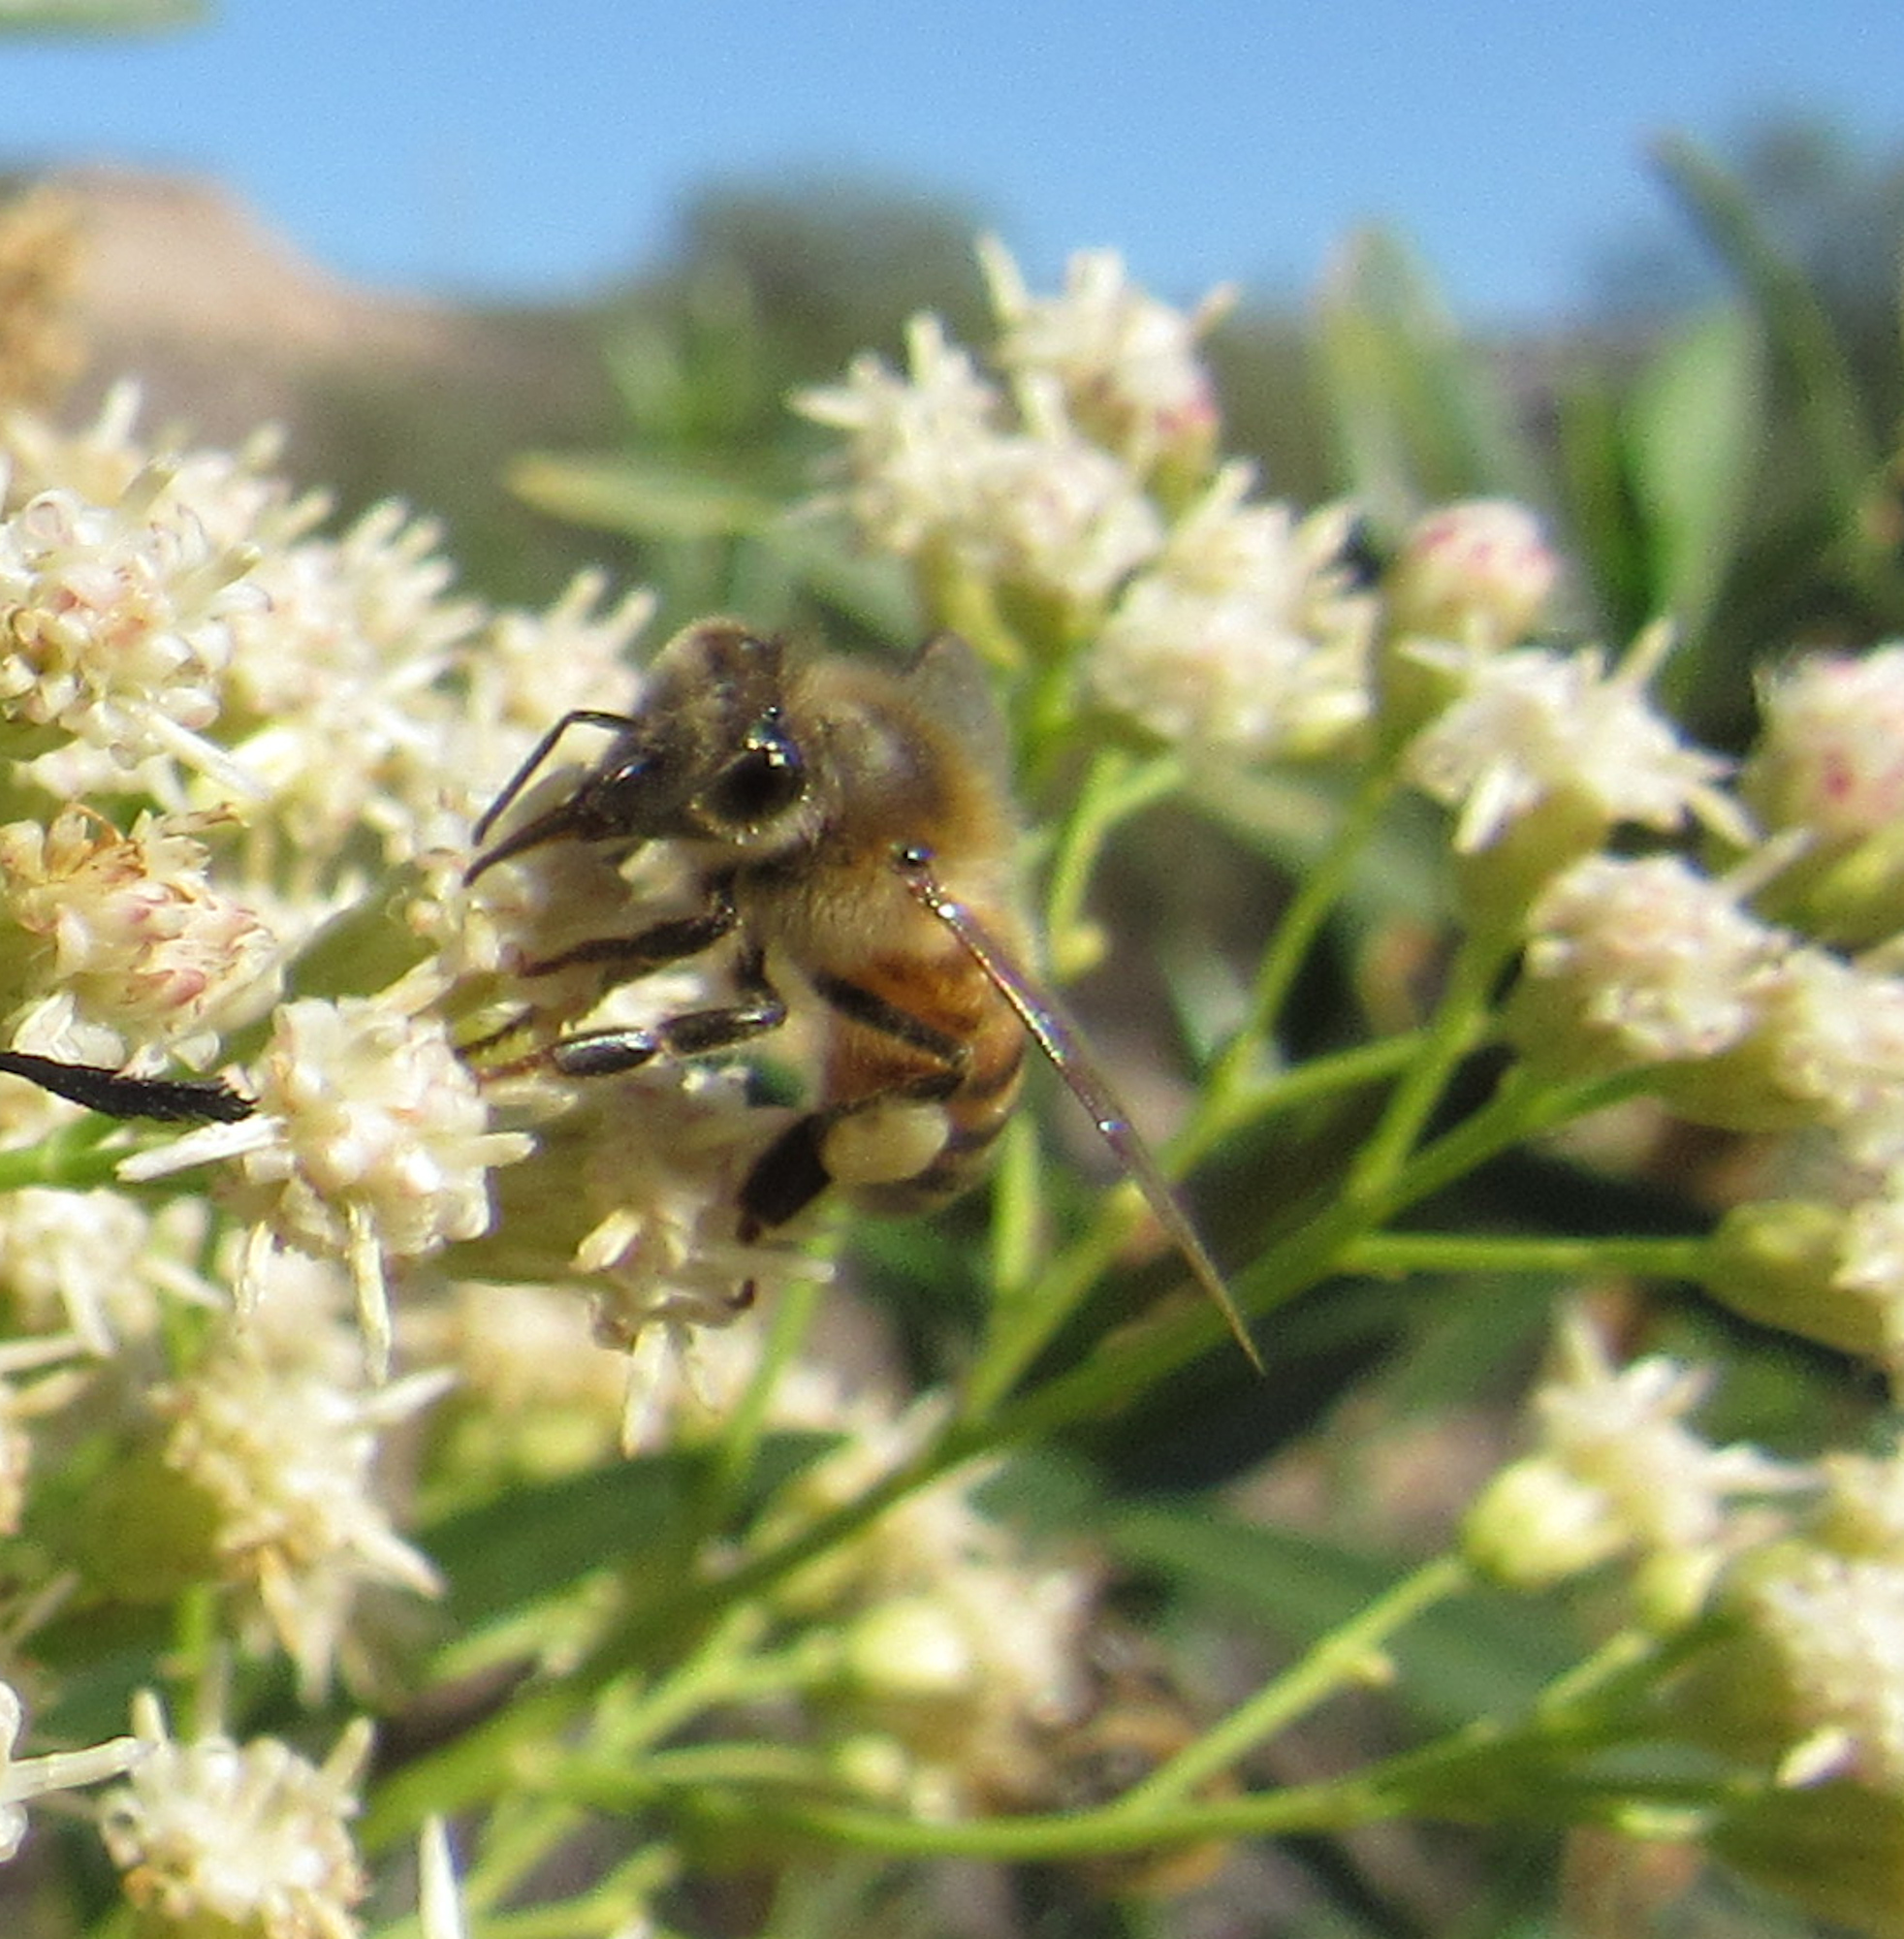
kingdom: Animalia
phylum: Arthropoda
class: Insecta
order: Hymenoptera
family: Apidae
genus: Apis
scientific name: Apis mellifera
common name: Honey bee
